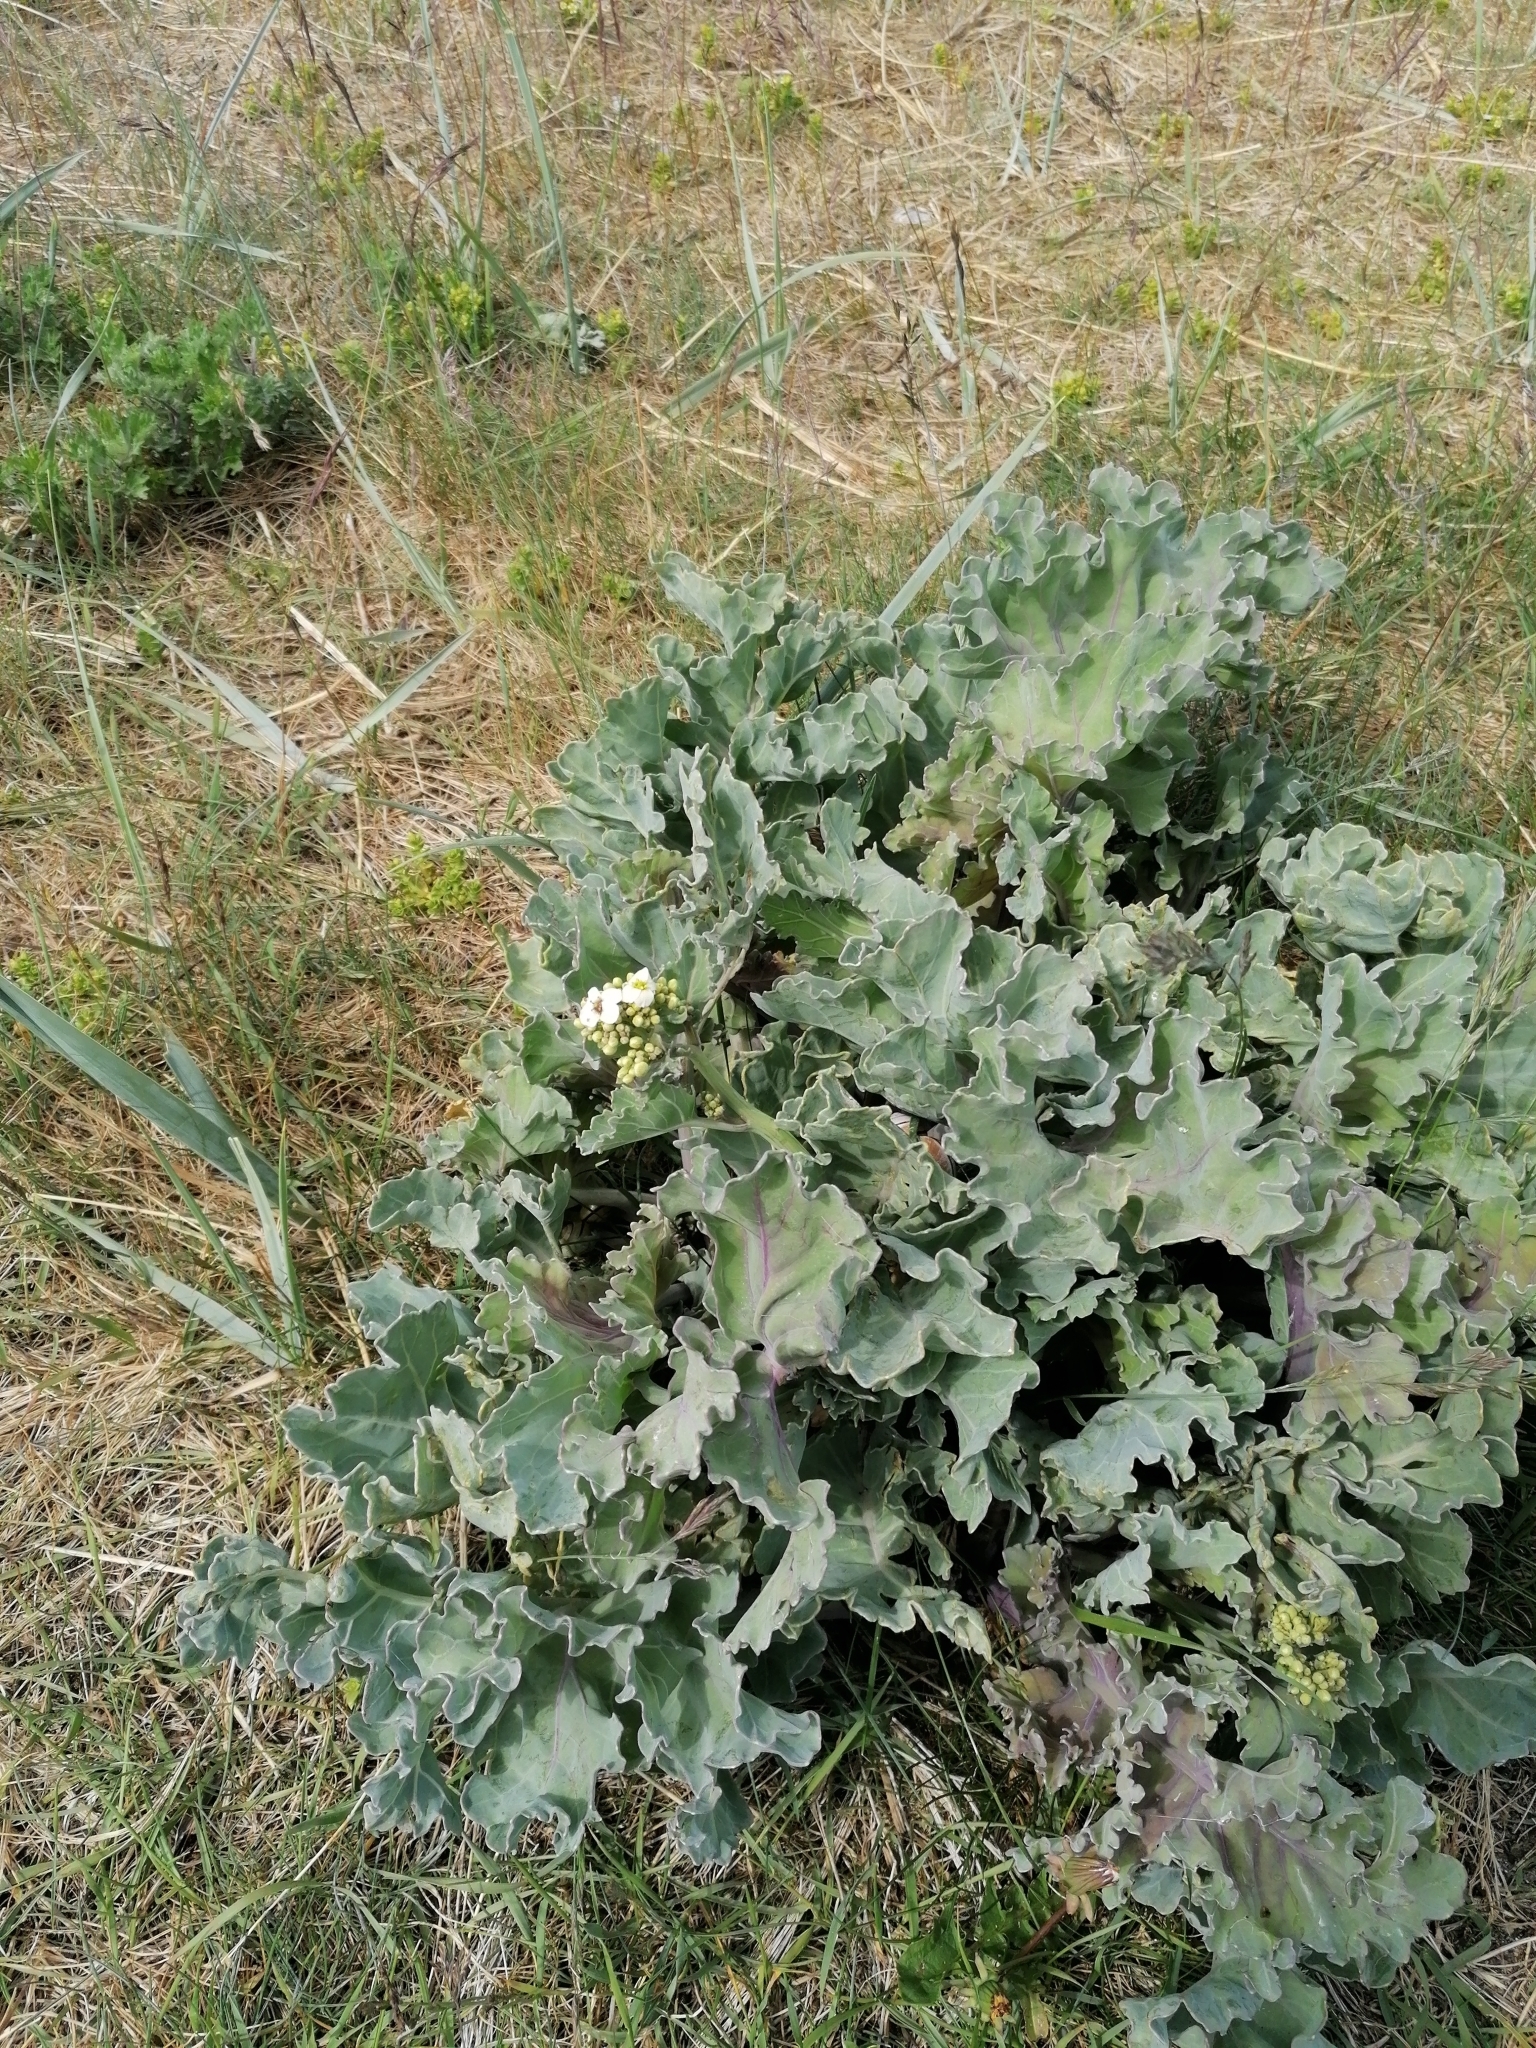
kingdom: Plantae
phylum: Tracheophyta
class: Magnoliopsida
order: Brassicales
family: Brassicaceae
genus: Crambe
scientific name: Crambe maritima
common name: Sea-kale
